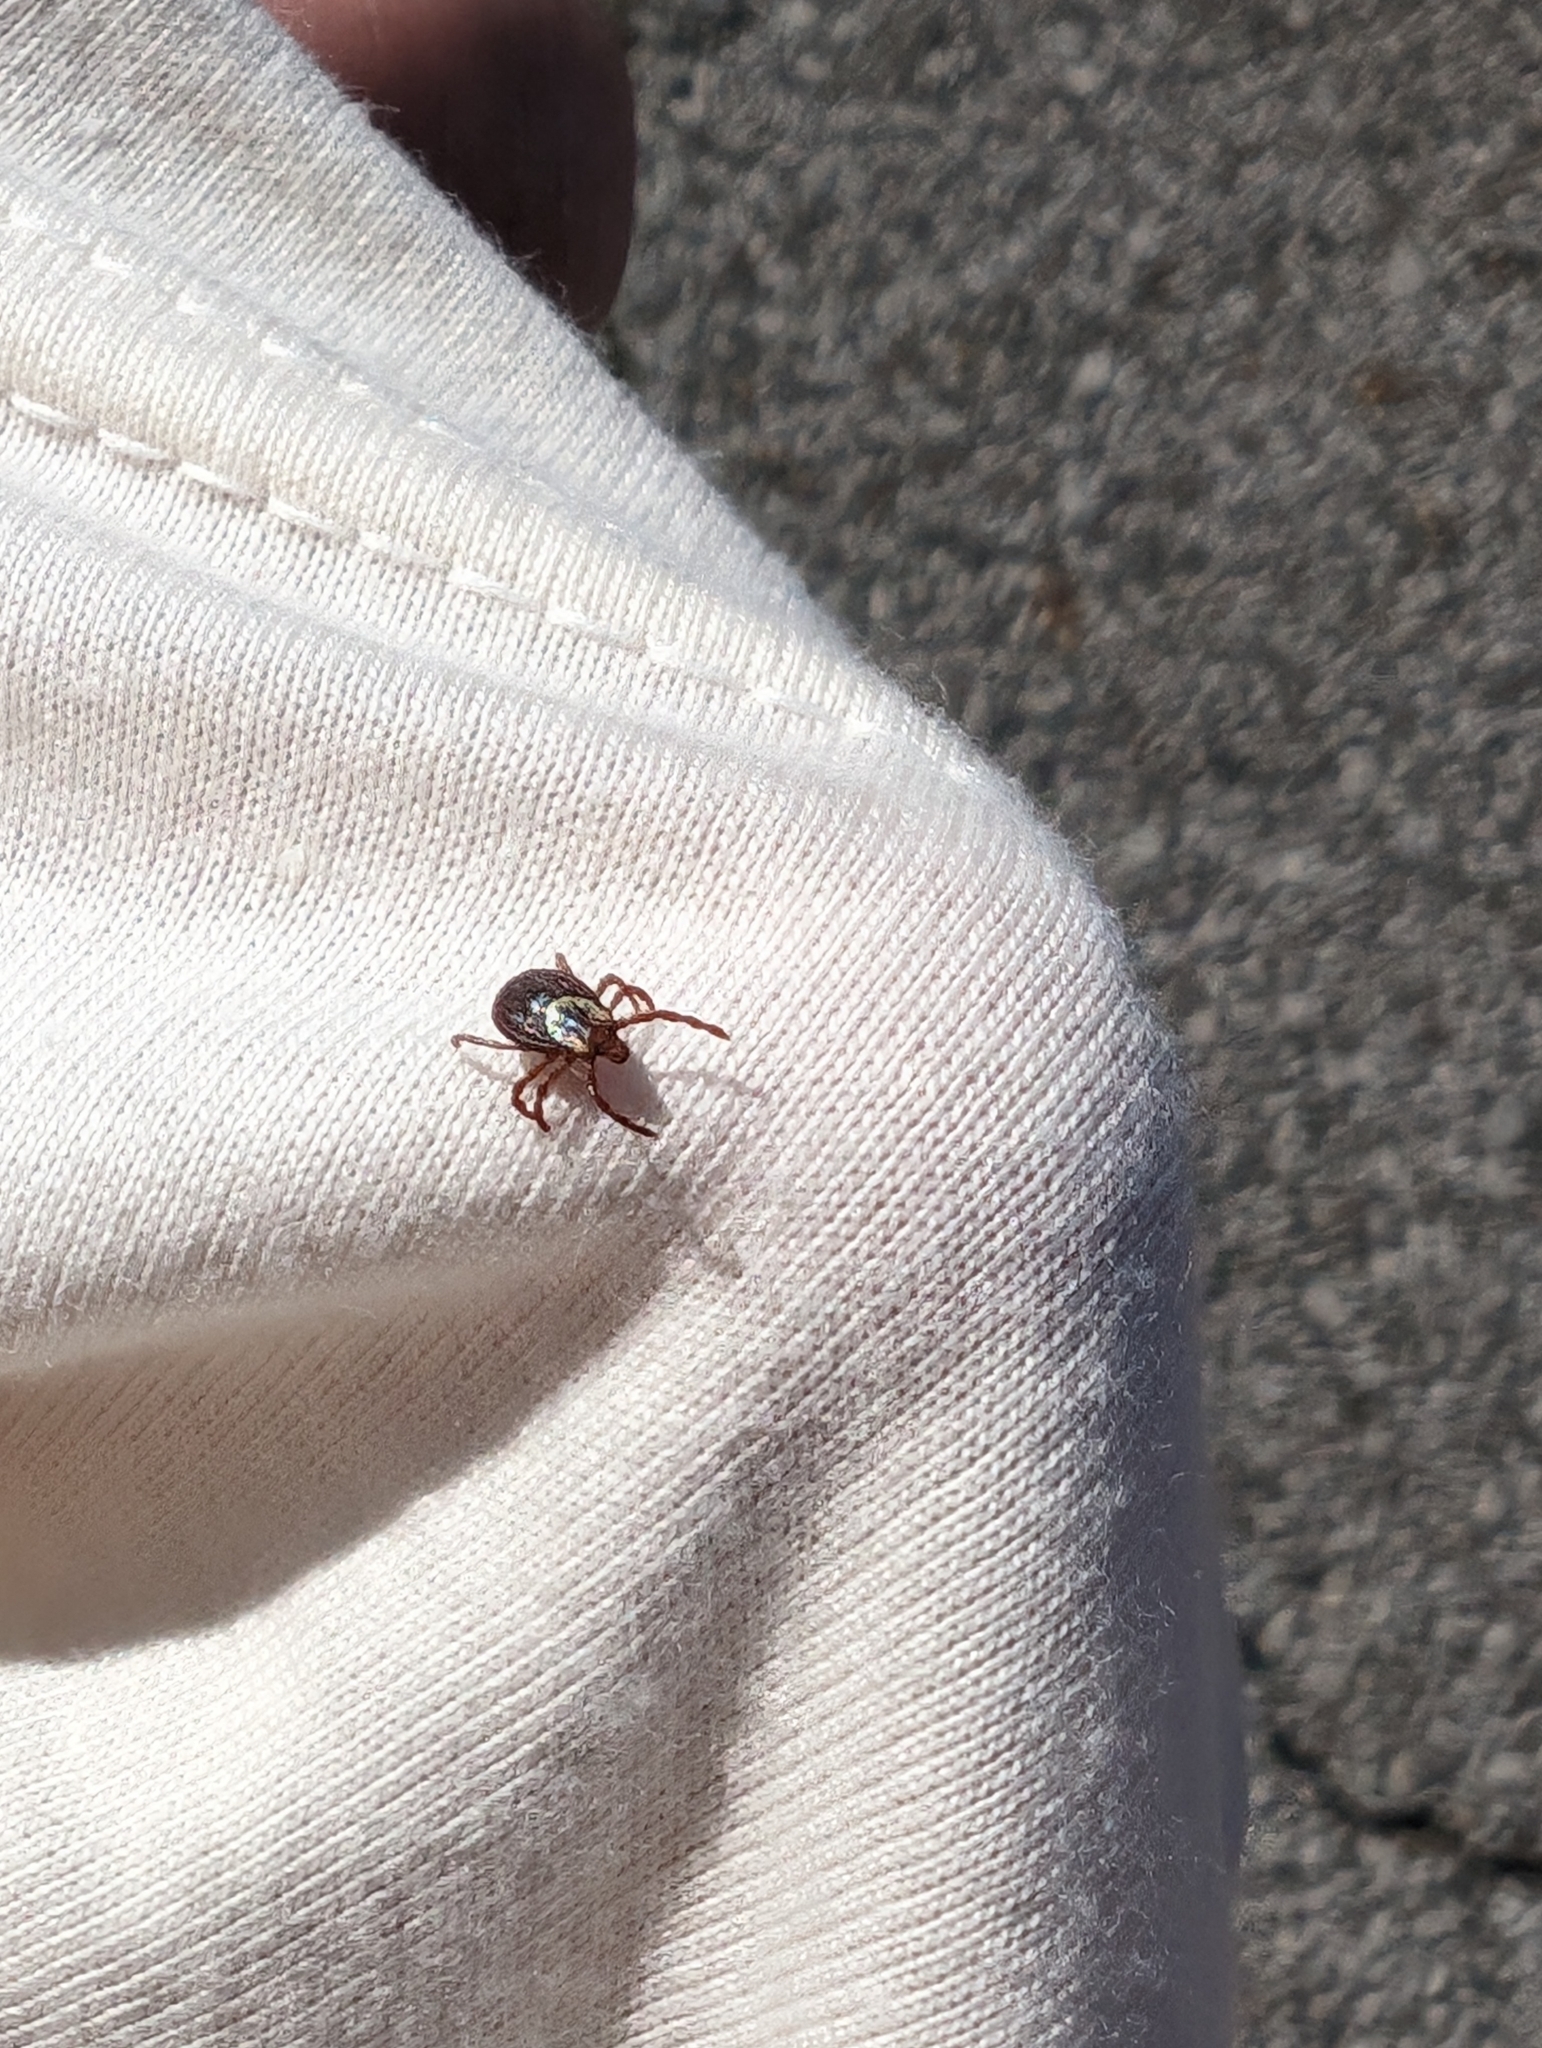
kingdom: Animalia
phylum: Arthropoda
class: Arachnida
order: Ixodida
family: Ixodidae
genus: Dermacentor
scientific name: Dermacentor variabilis
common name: American dog tick
